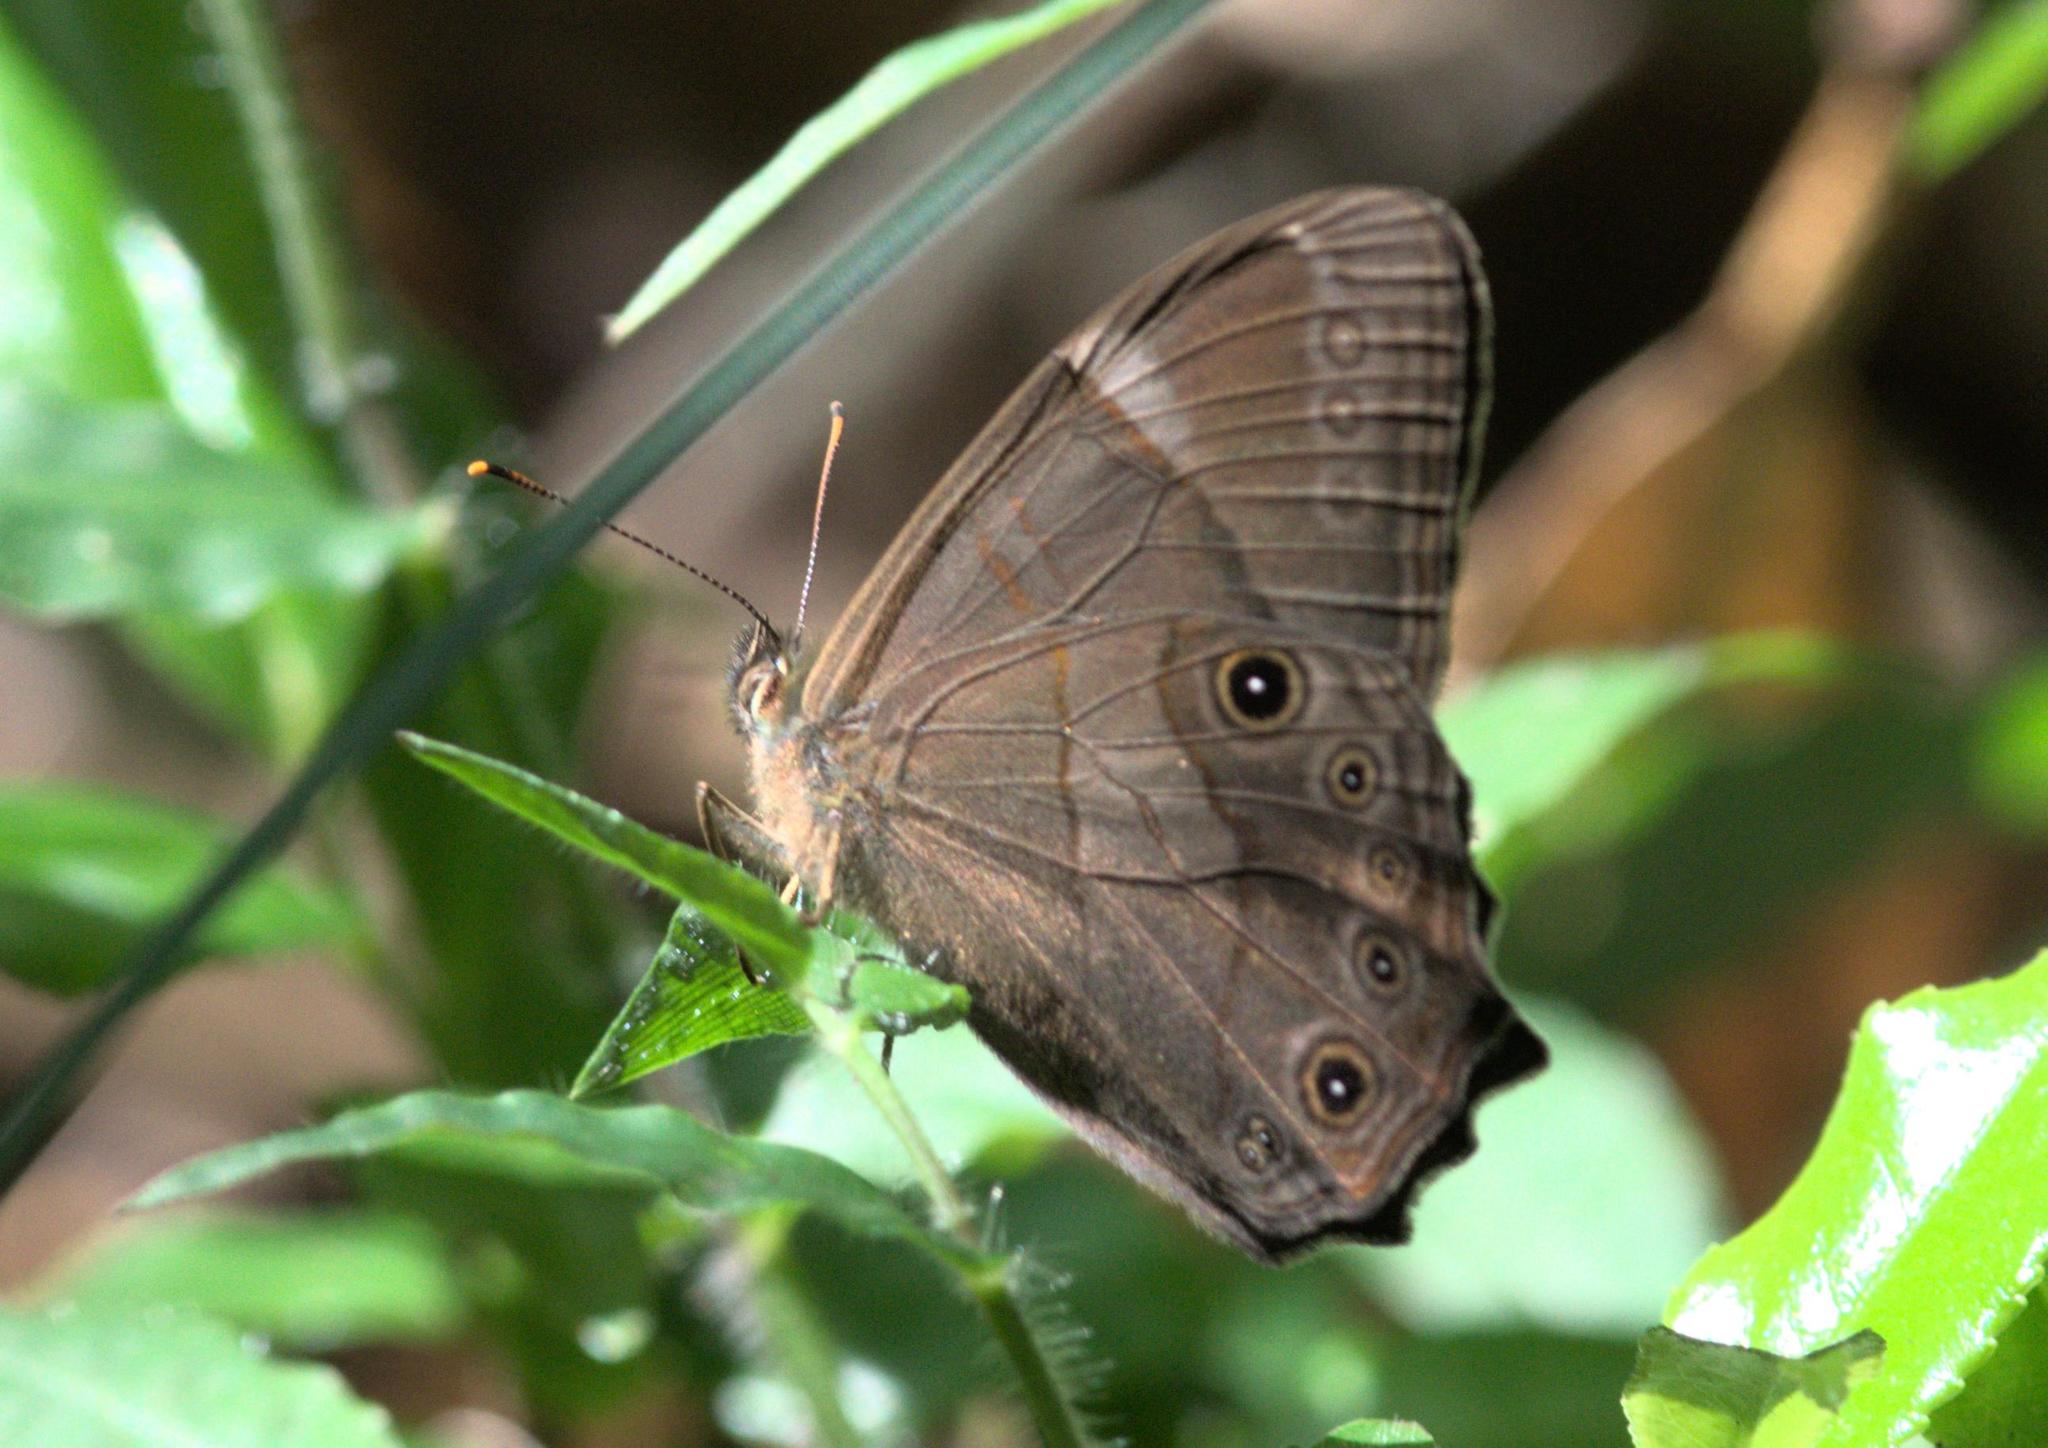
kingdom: Animalia
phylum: Arthropoda
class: Insecta
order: Lepidoptera
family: Nymphalidae
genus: Lethe
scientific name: Lethe
